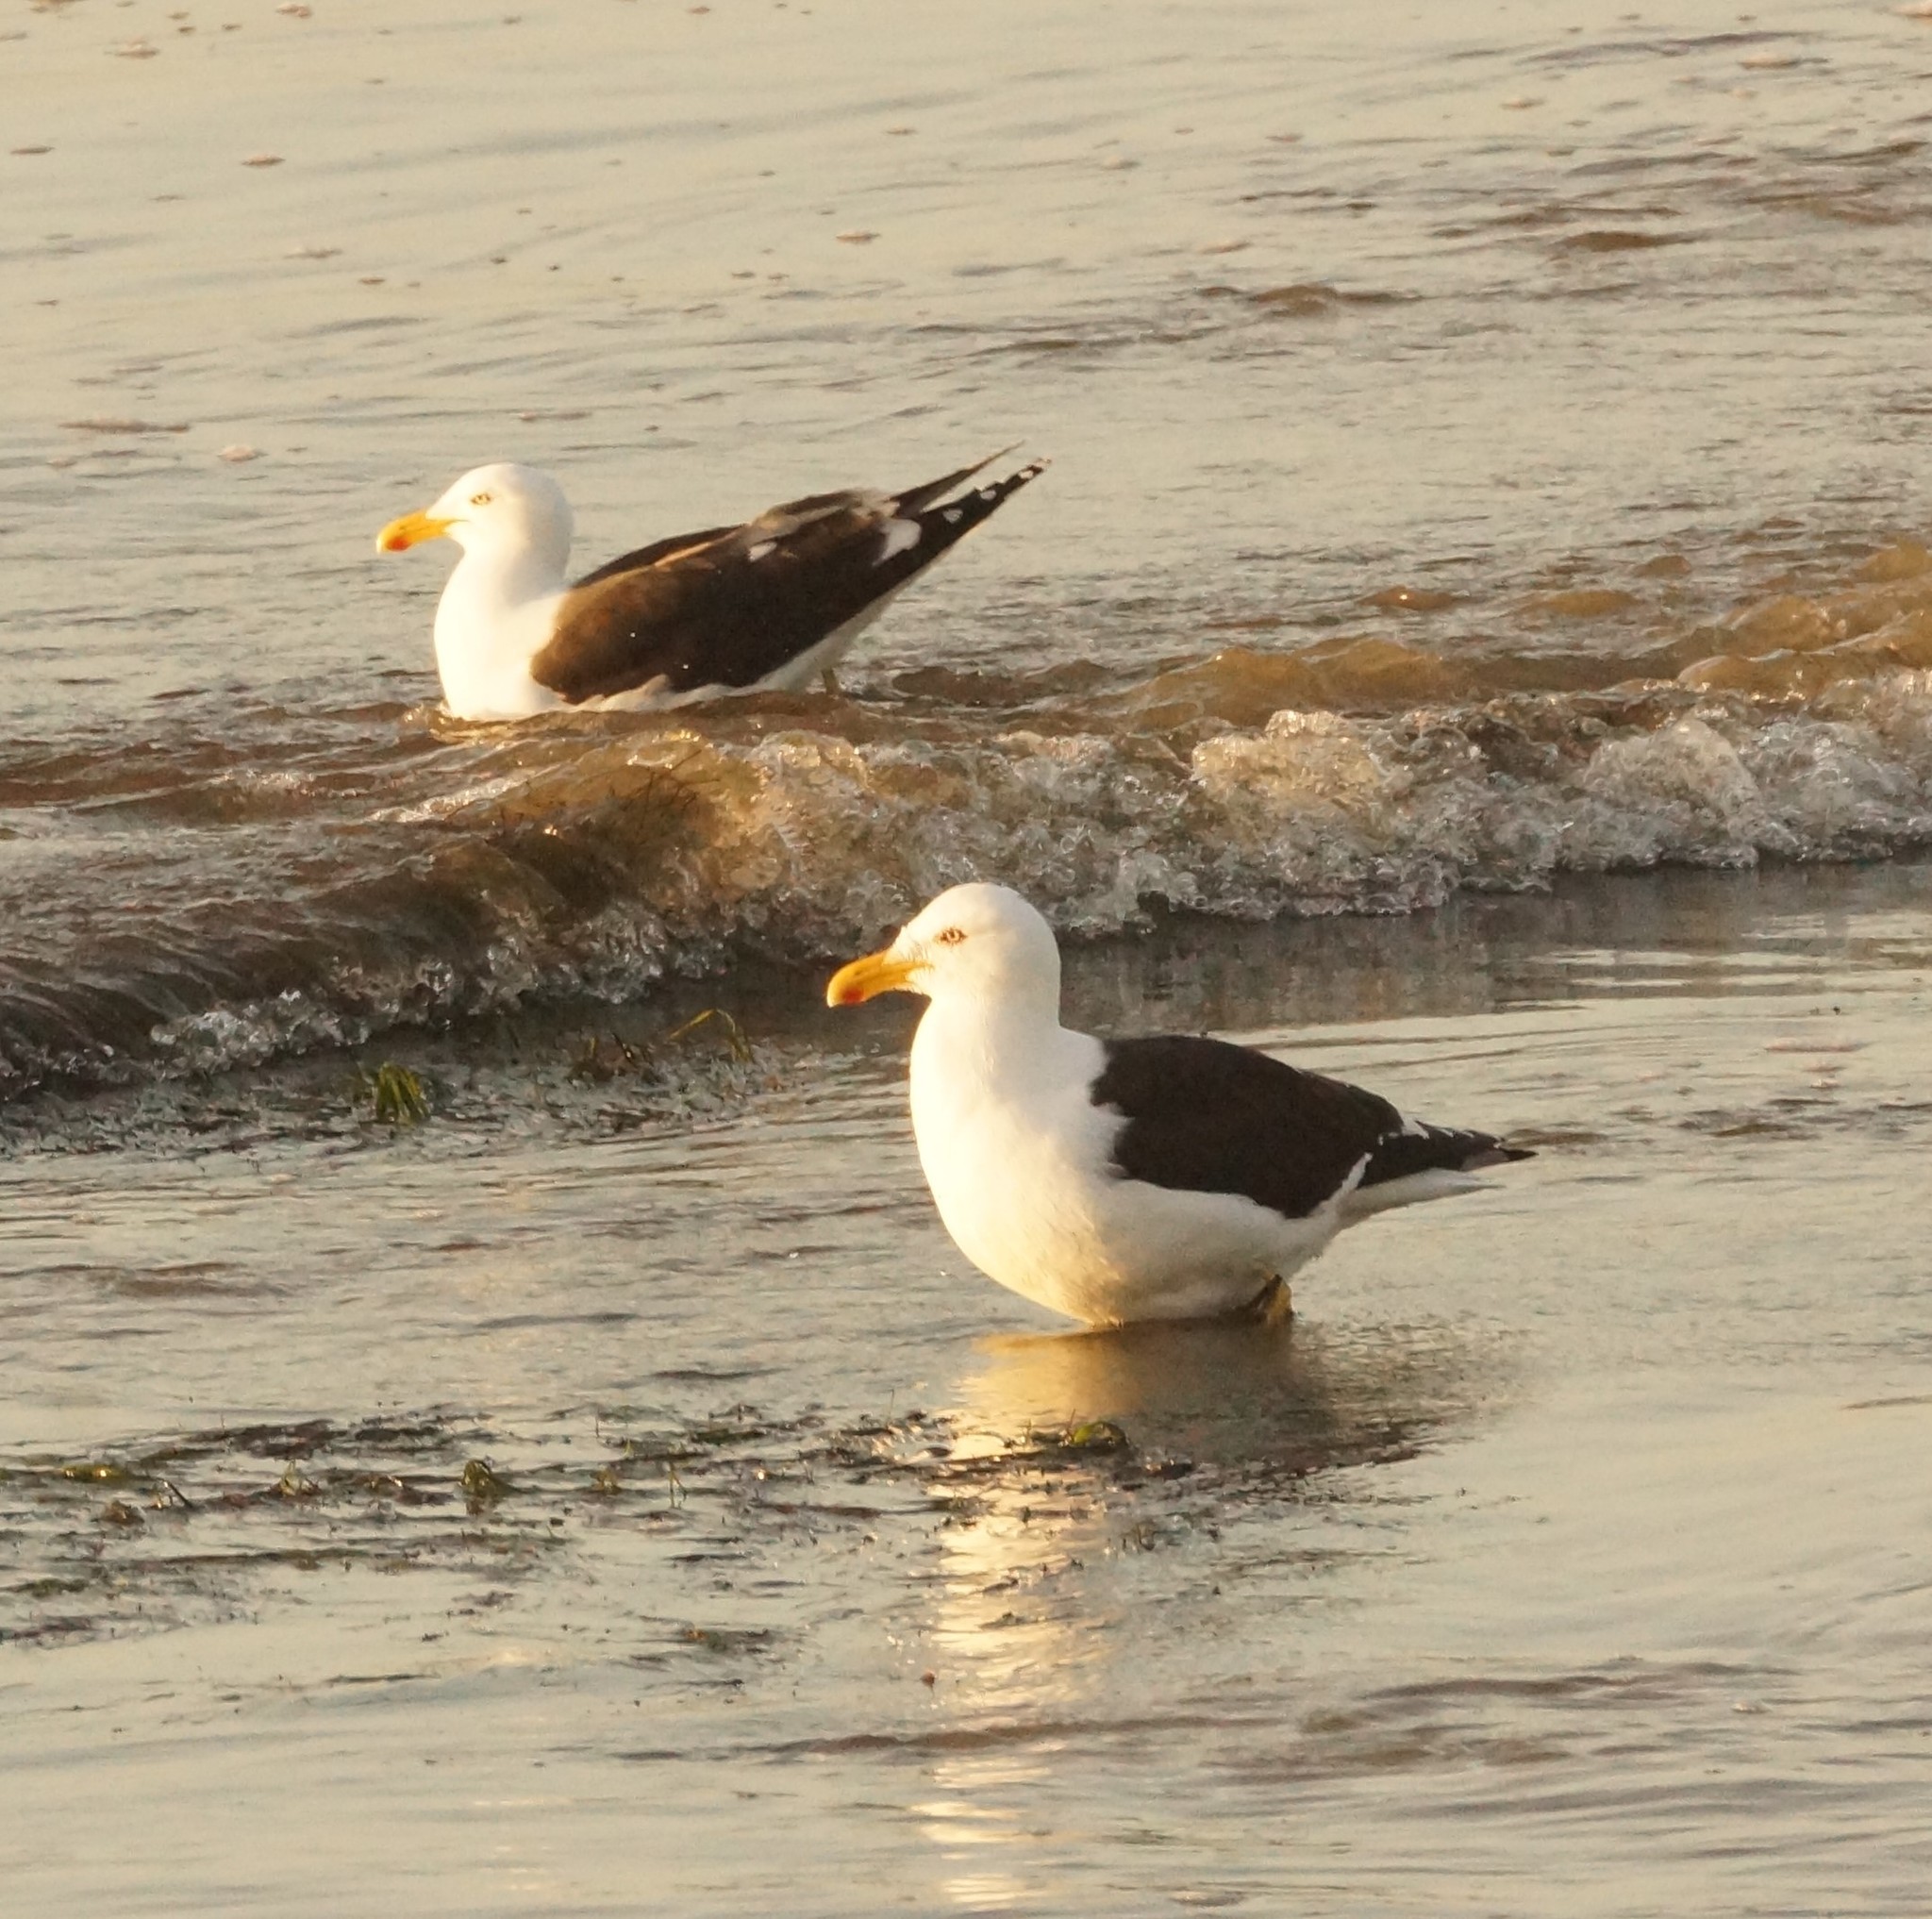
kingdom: Animalia
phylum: Chordata
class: Aves
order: Charadriiformes
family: Laridae
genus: Larus
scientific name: Larus dominicanus
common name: Kelp gull
